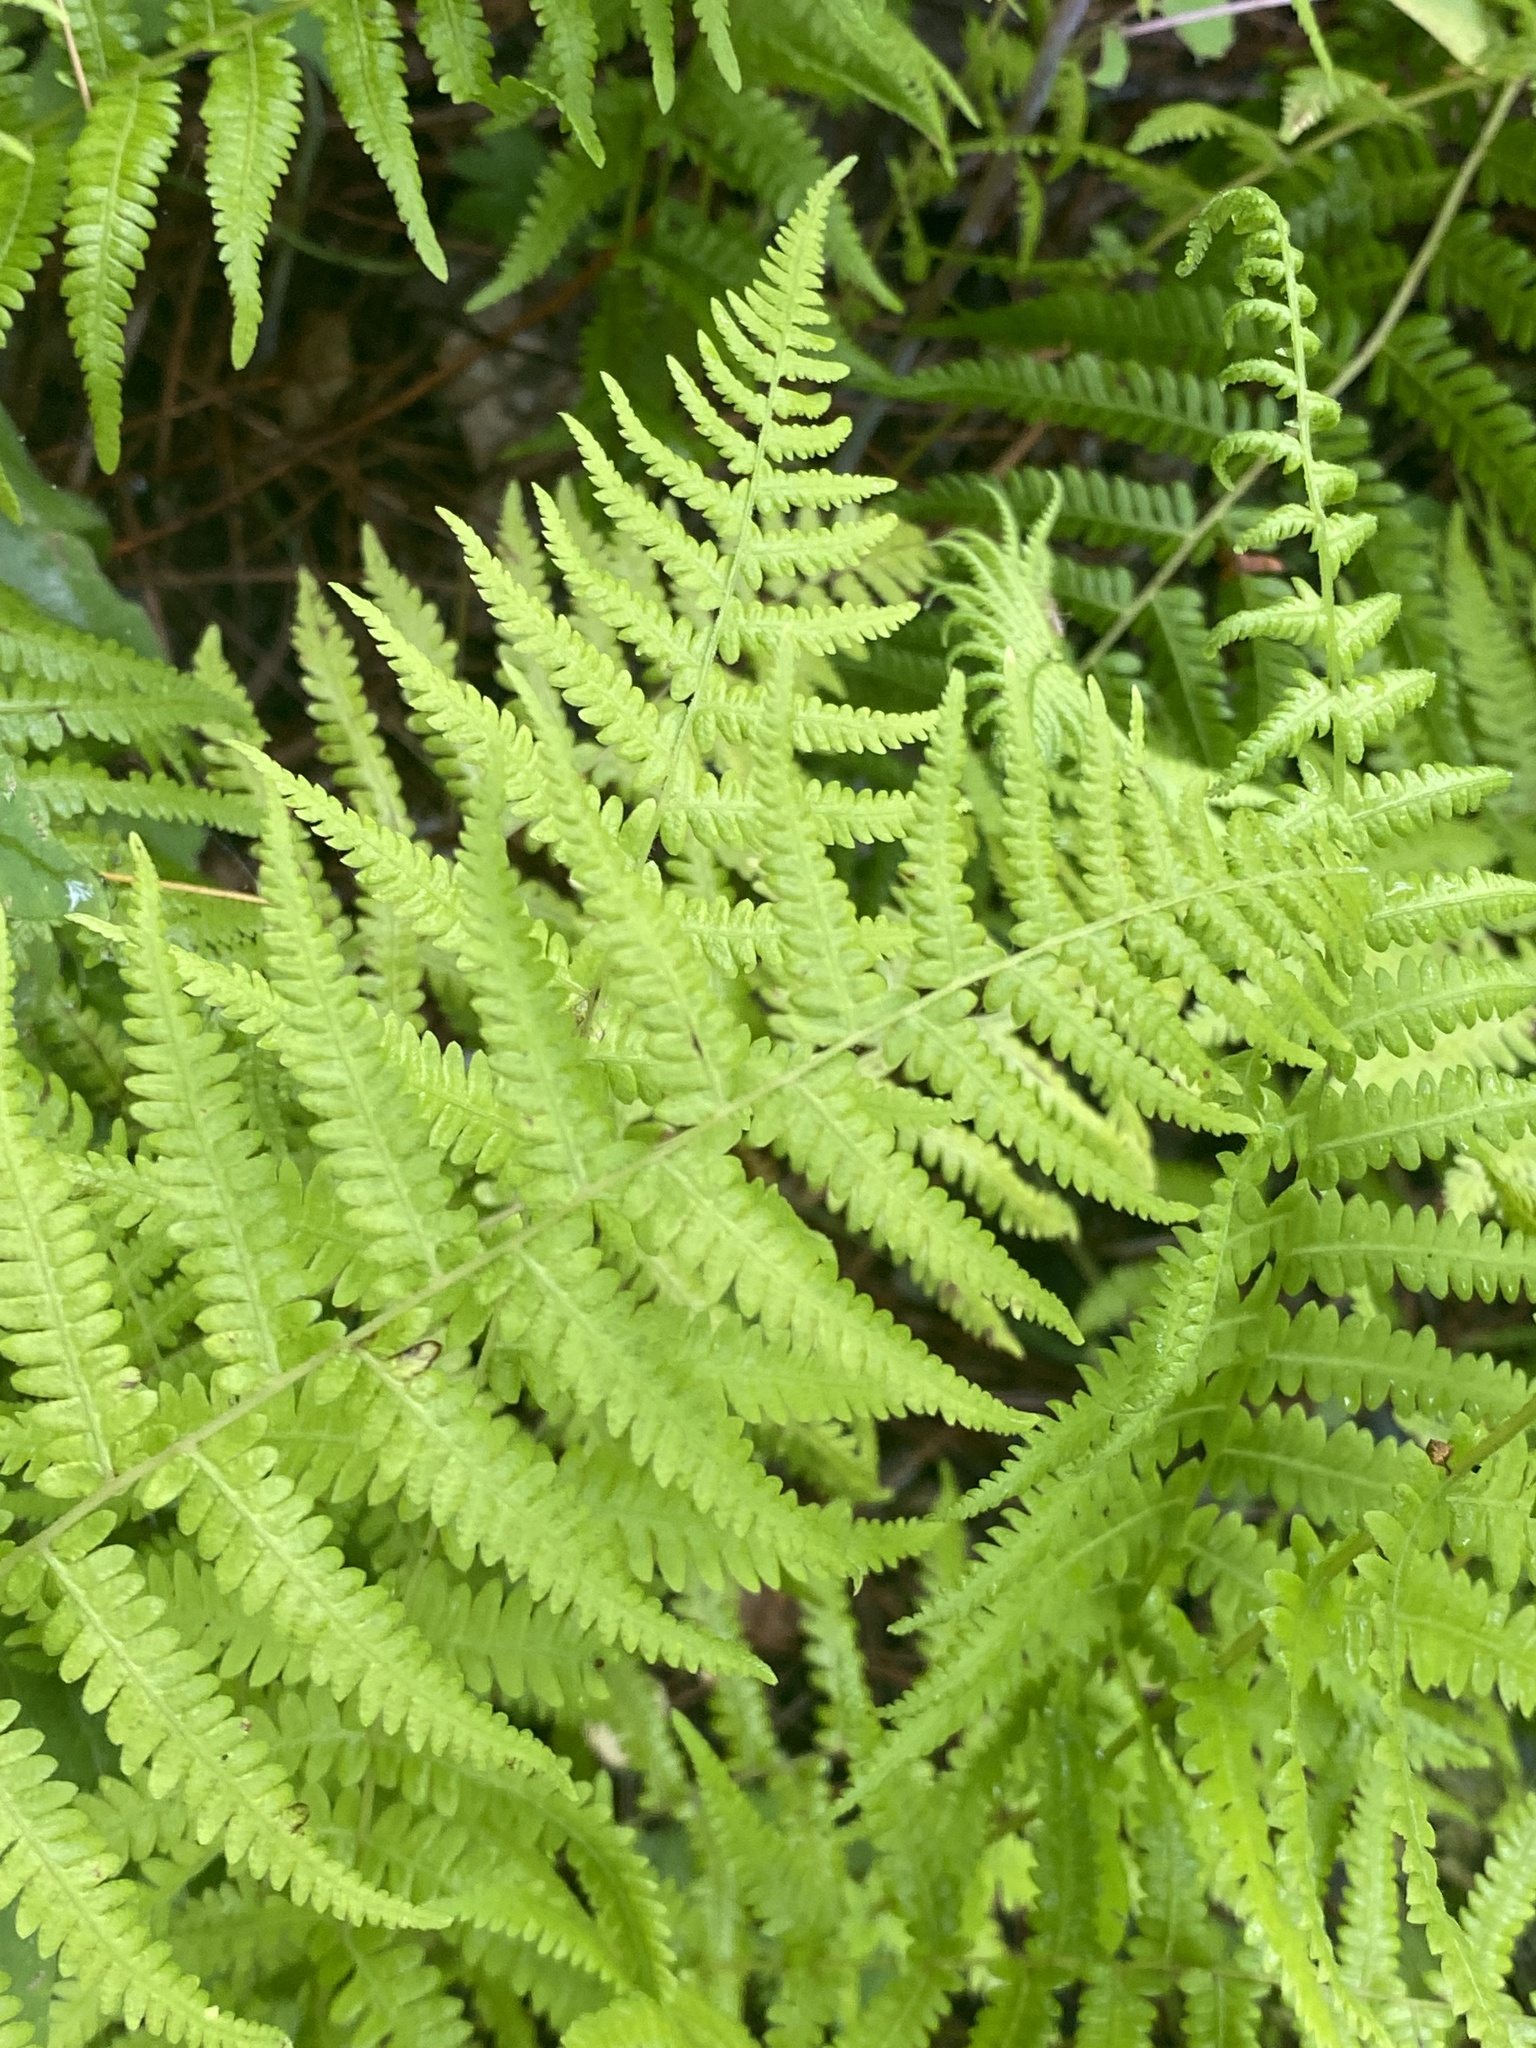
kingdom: Plantae
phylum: Tracheophyta
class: Polypodiopsida
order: Polypodiales
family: Thelypteridaceae
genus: Amauropelta
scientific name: Amauropelta noveboracensis
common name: New york fern
